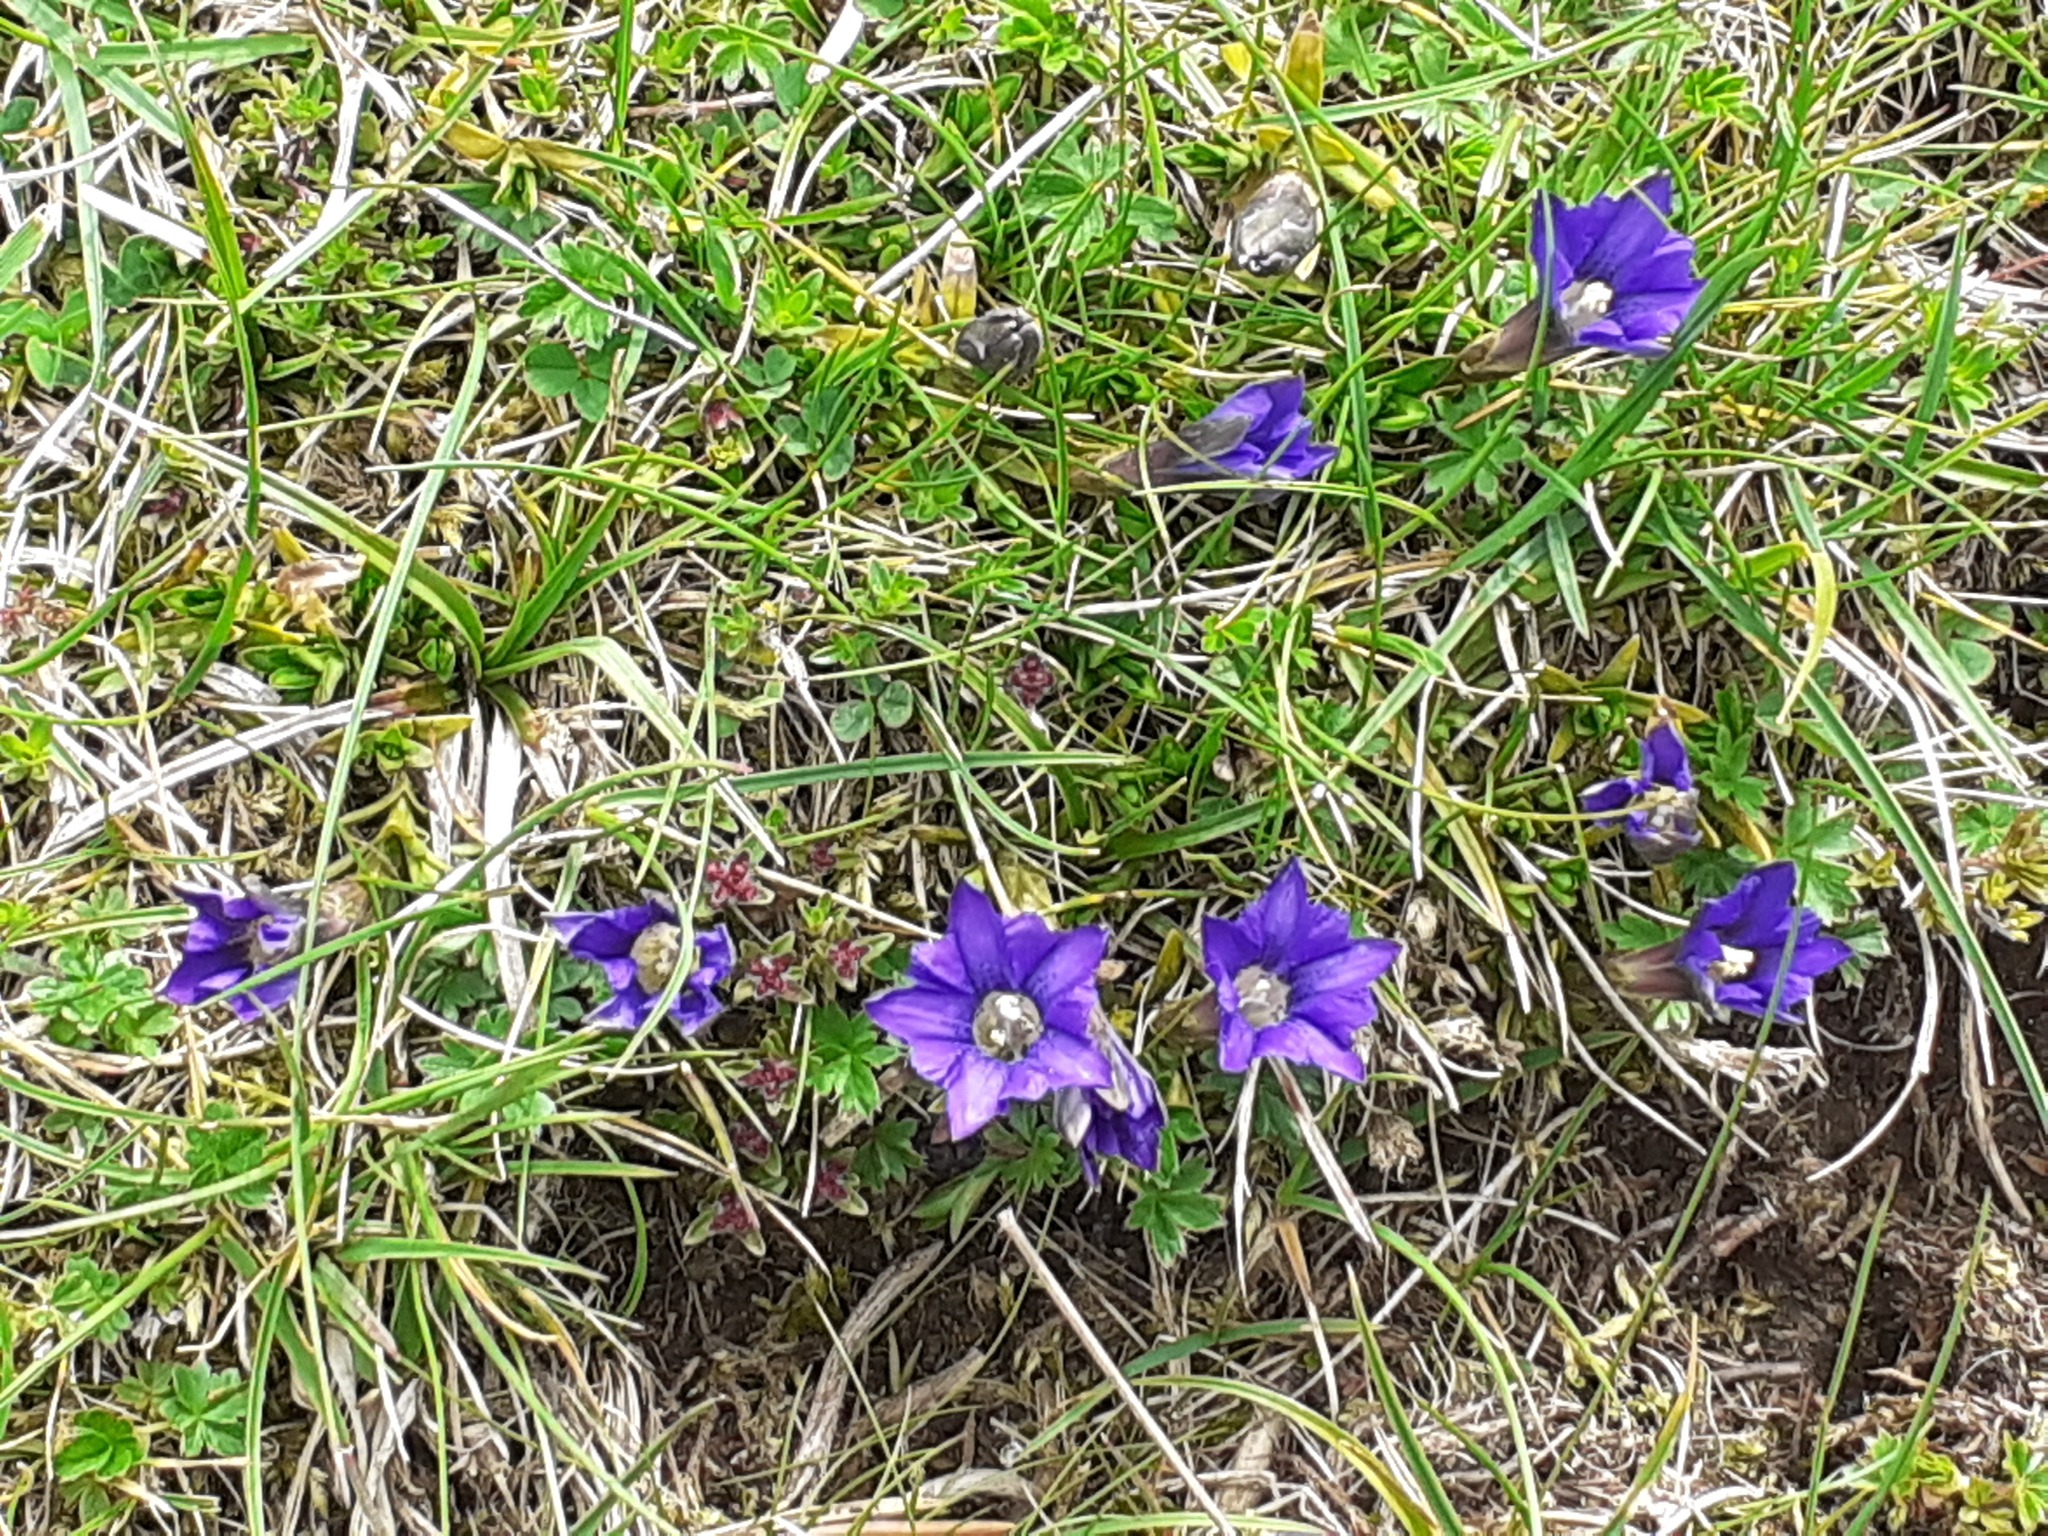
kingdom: Plantae
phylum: Tracheophyta
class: Magnoliopsida
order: Gentianales
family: Gentianaceae
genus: Gentiana
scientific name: Gentiana pyrenaica
